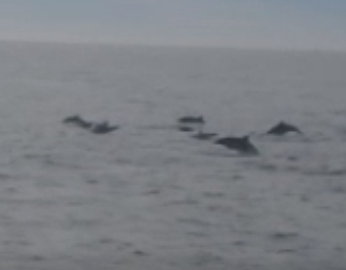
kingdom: Animalia
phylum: Chordata
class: Mammalia
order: Cetacea
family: Delphinidae
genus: Delphinus
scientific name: Delphinus delphis
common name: Common dolphin
